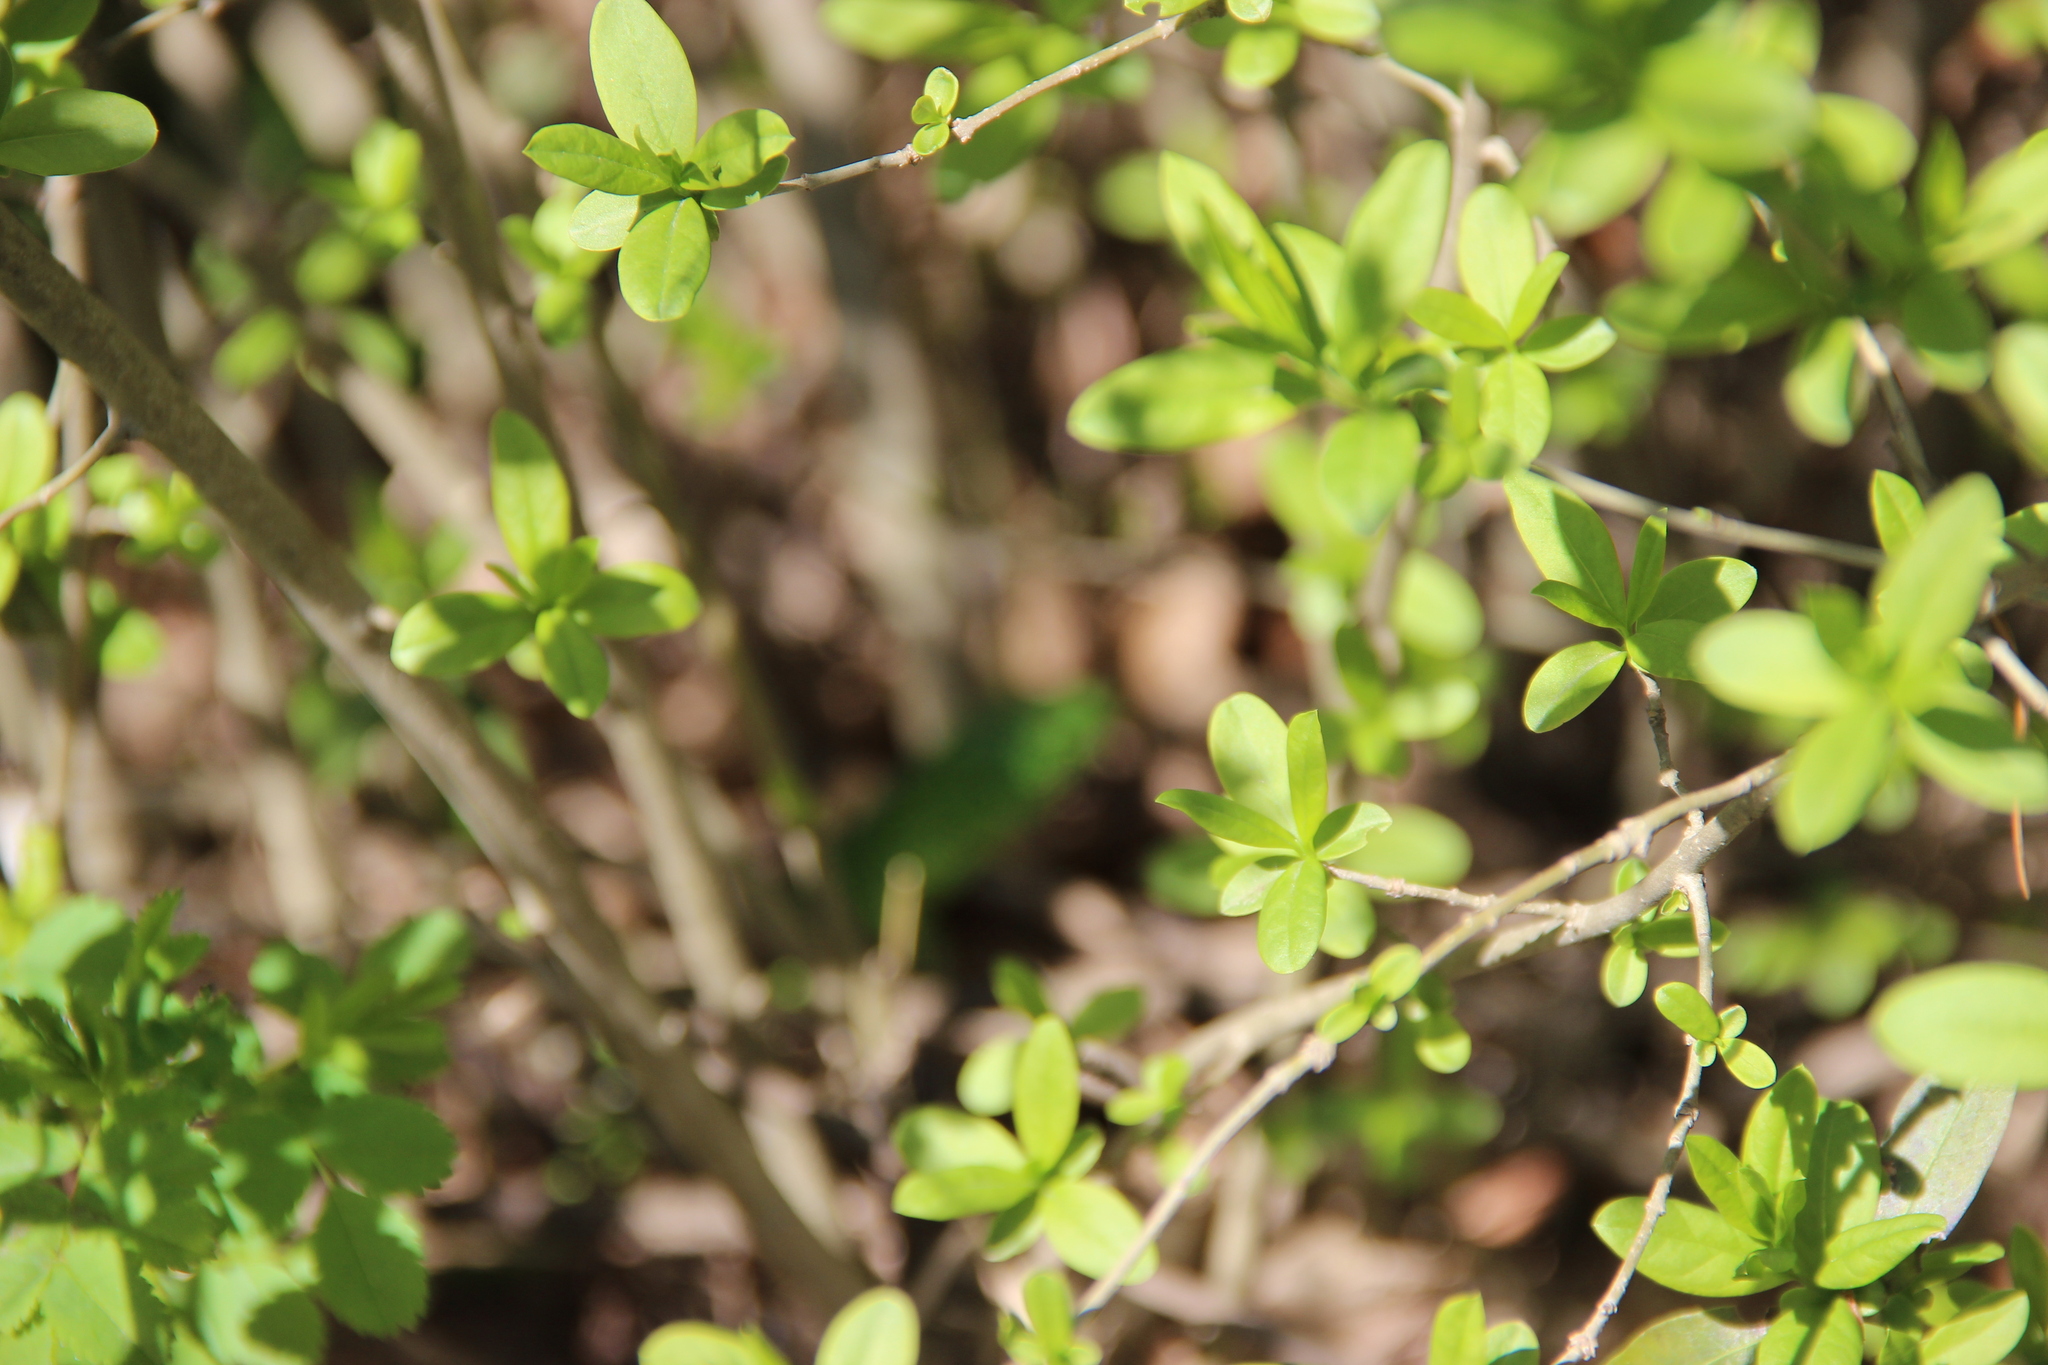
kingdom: Plantae
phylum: Tracheophyta
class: Magnoliopsida
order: Lamiales
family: Oleaceae
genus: Ligustrum
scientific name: Ligustrum vulgare
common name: Wild privet
